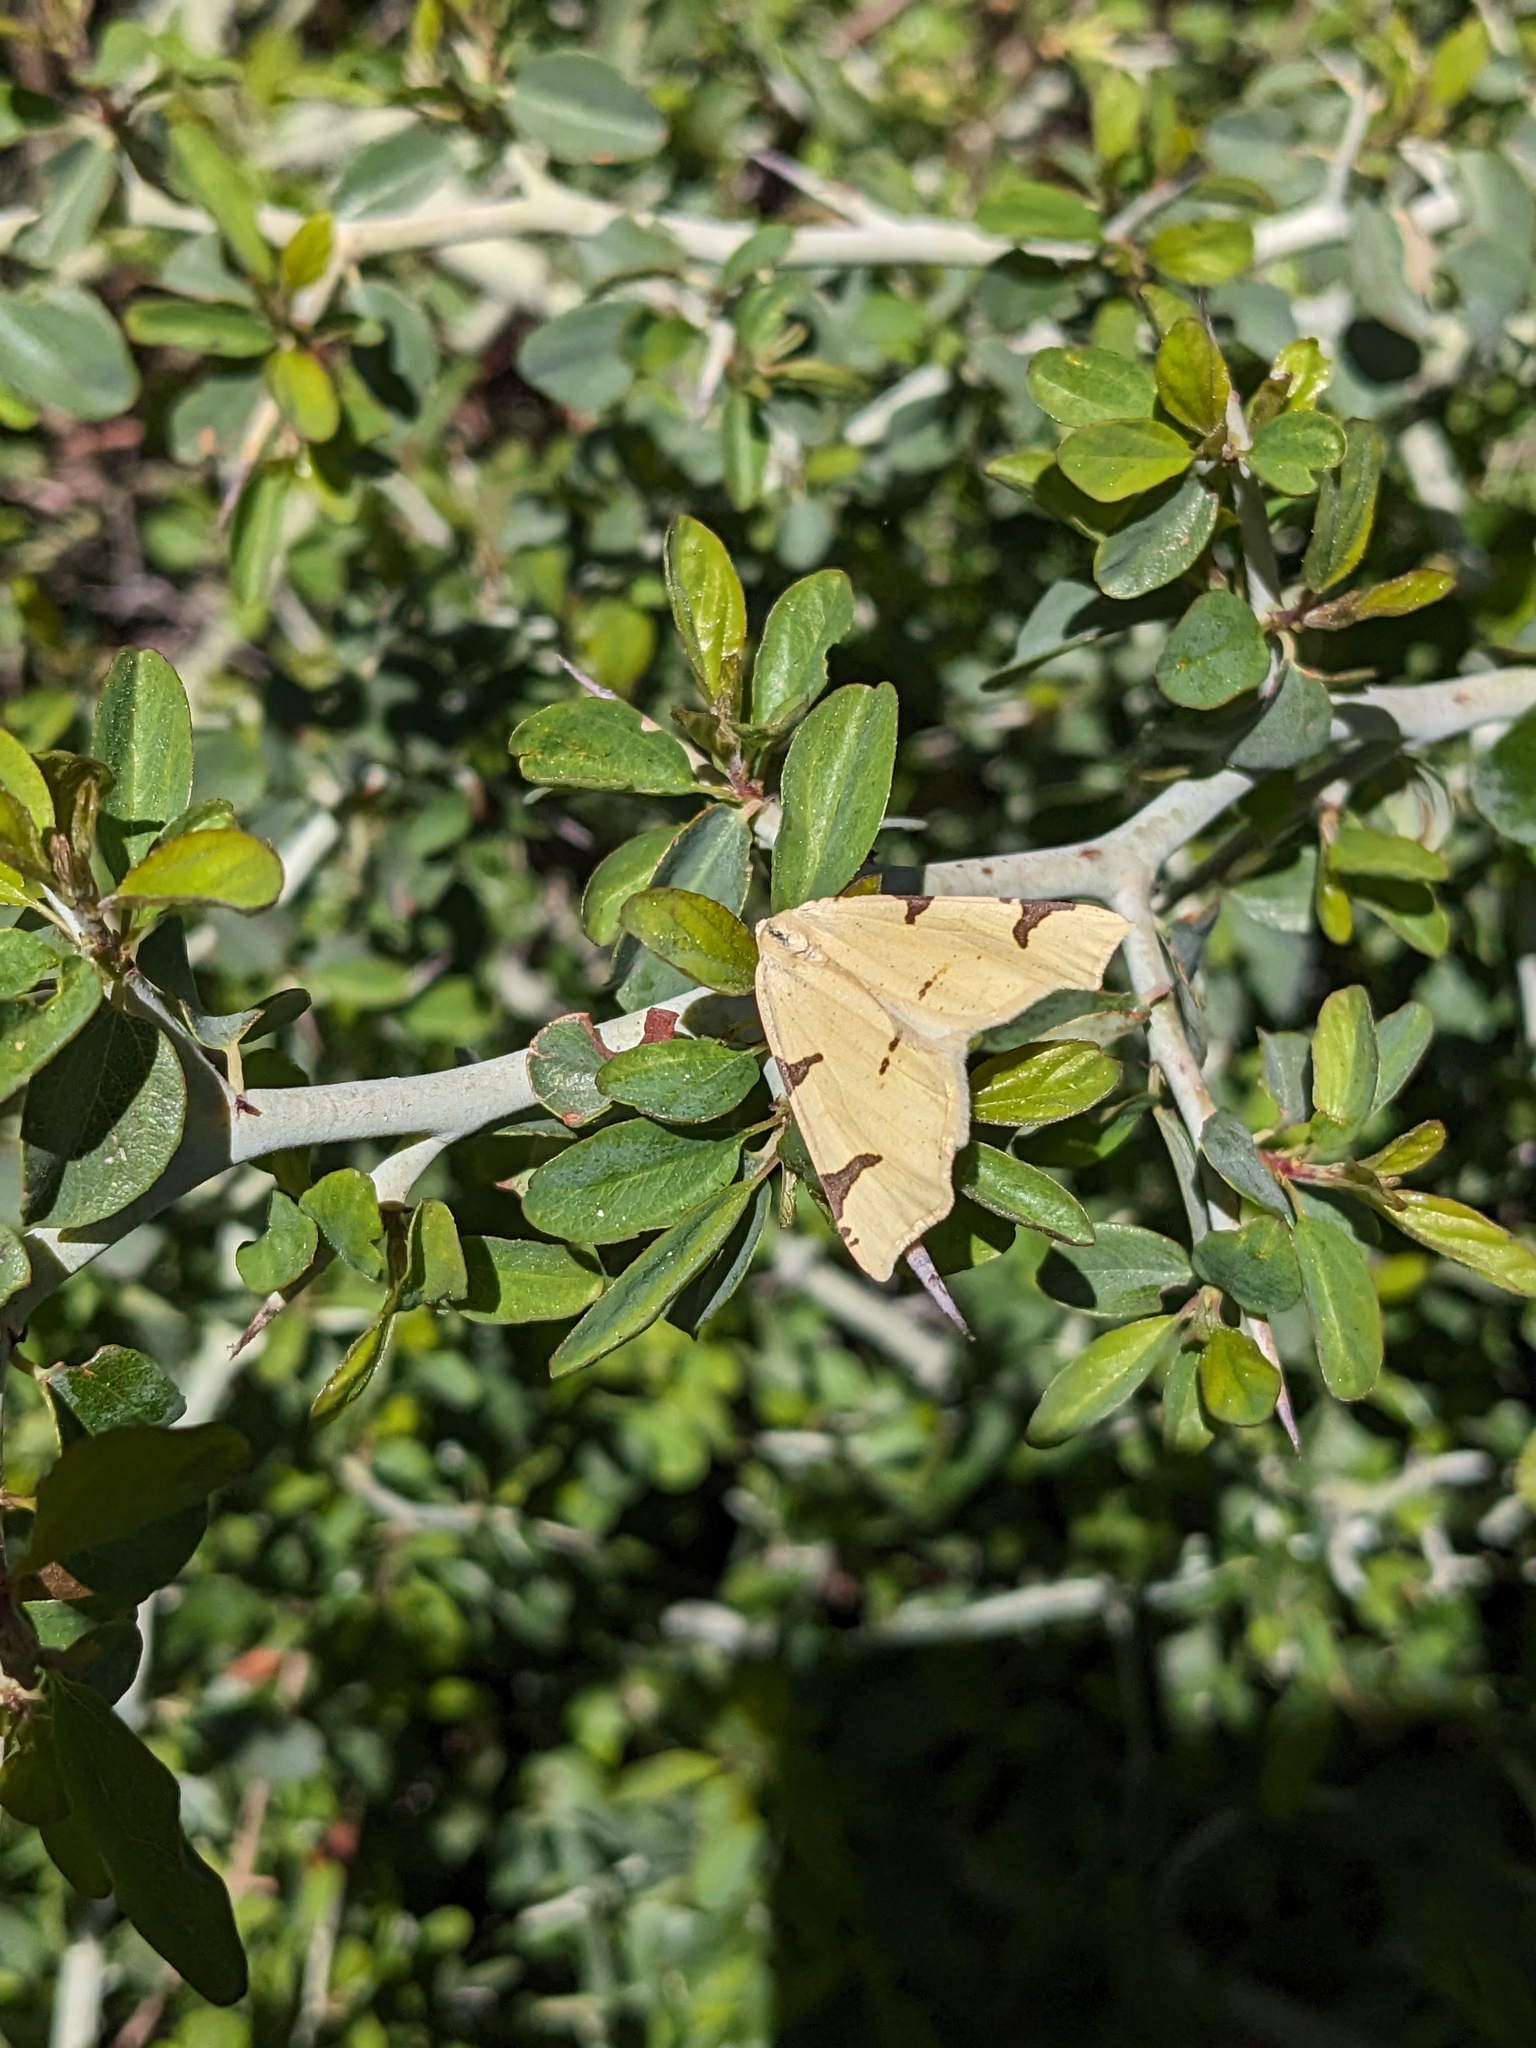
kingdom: Animalia
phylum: Arthropoda
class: Insecta
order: Lepidoptera
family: Geometridae
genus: Neoterpes
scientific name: Neoterpes trianguliferata
